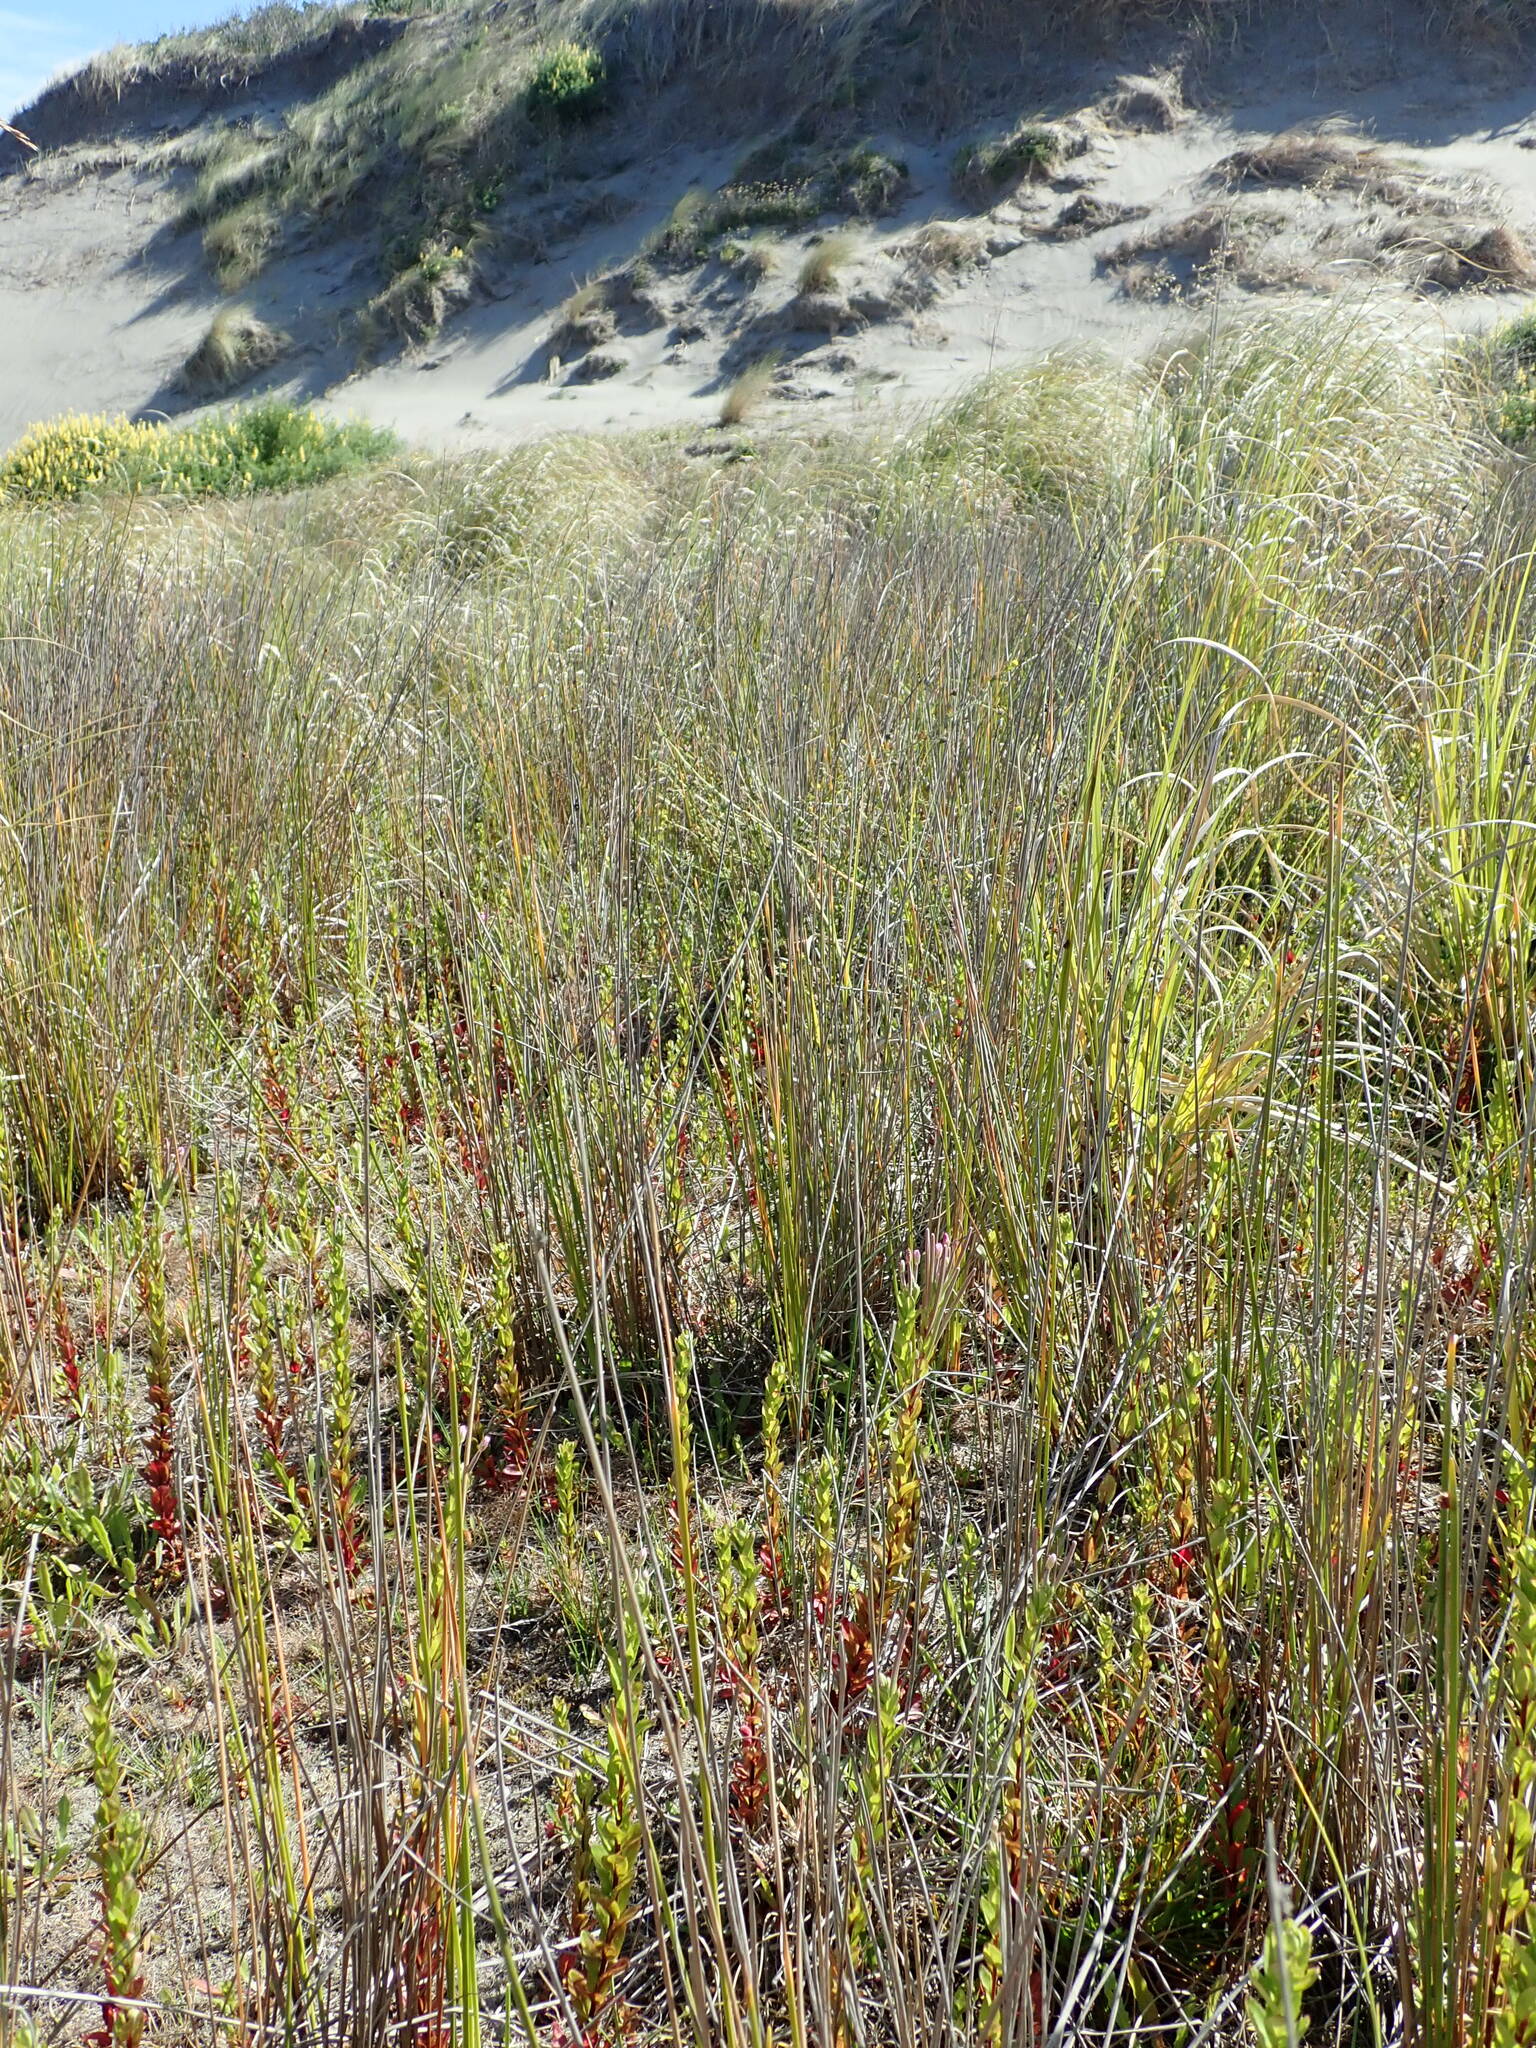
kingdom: Plantae
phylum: Tracheophyta
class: Magnoliopsida
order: Myrtales
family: Onagraceae
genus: Epilobium
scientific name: Epilobium billardiereanum
